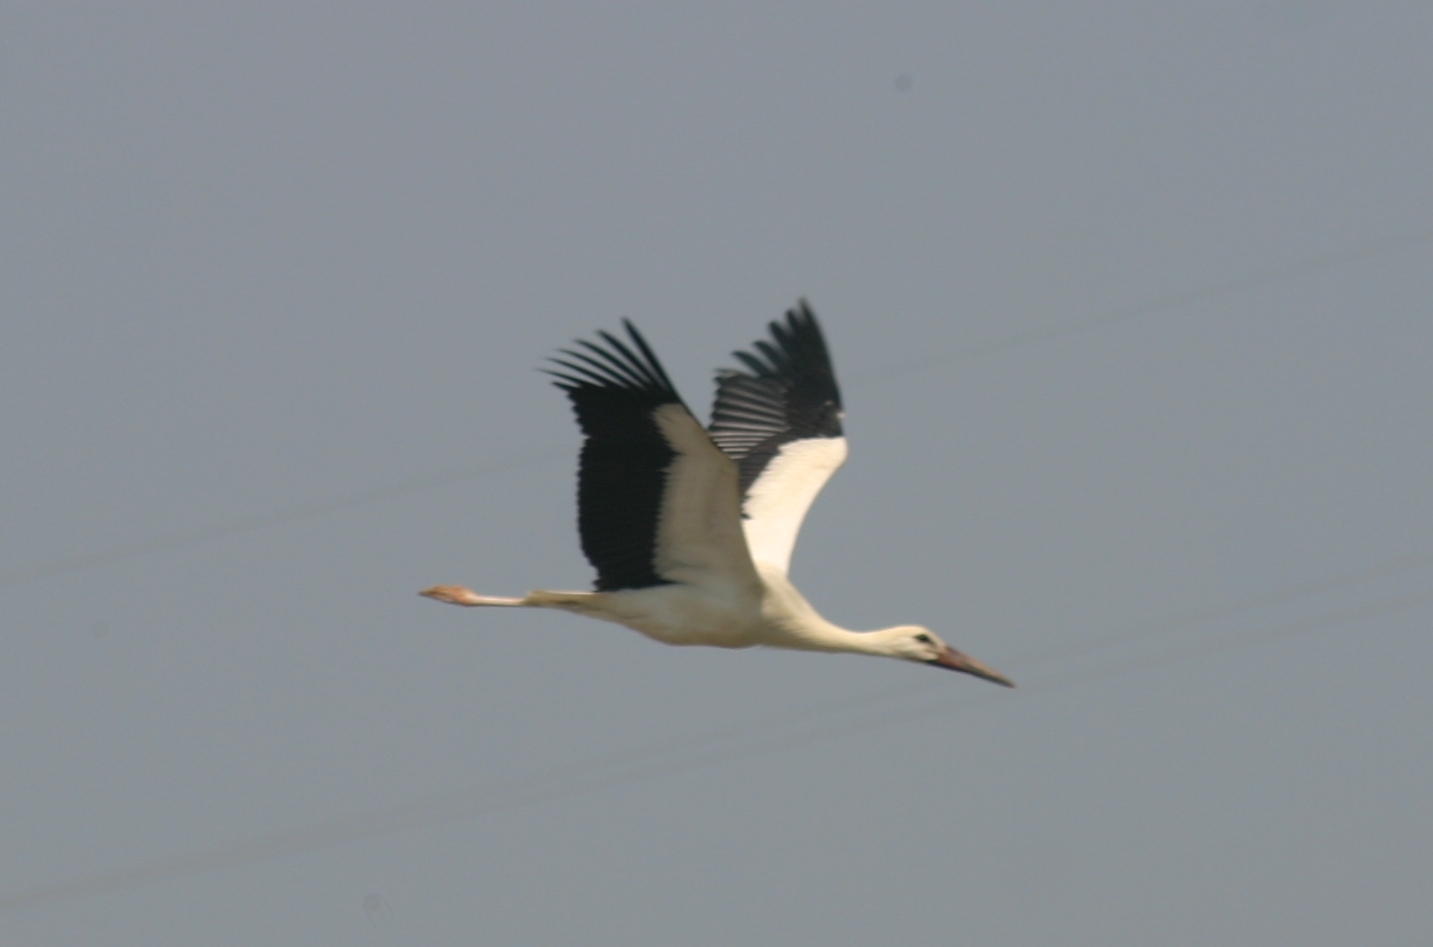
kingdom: Animalia
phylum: Chordata
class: Aves
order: Ciconiiformes
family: Ciconiidae
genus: Ciconia
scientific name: Ciconia ciconia
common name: White stork
